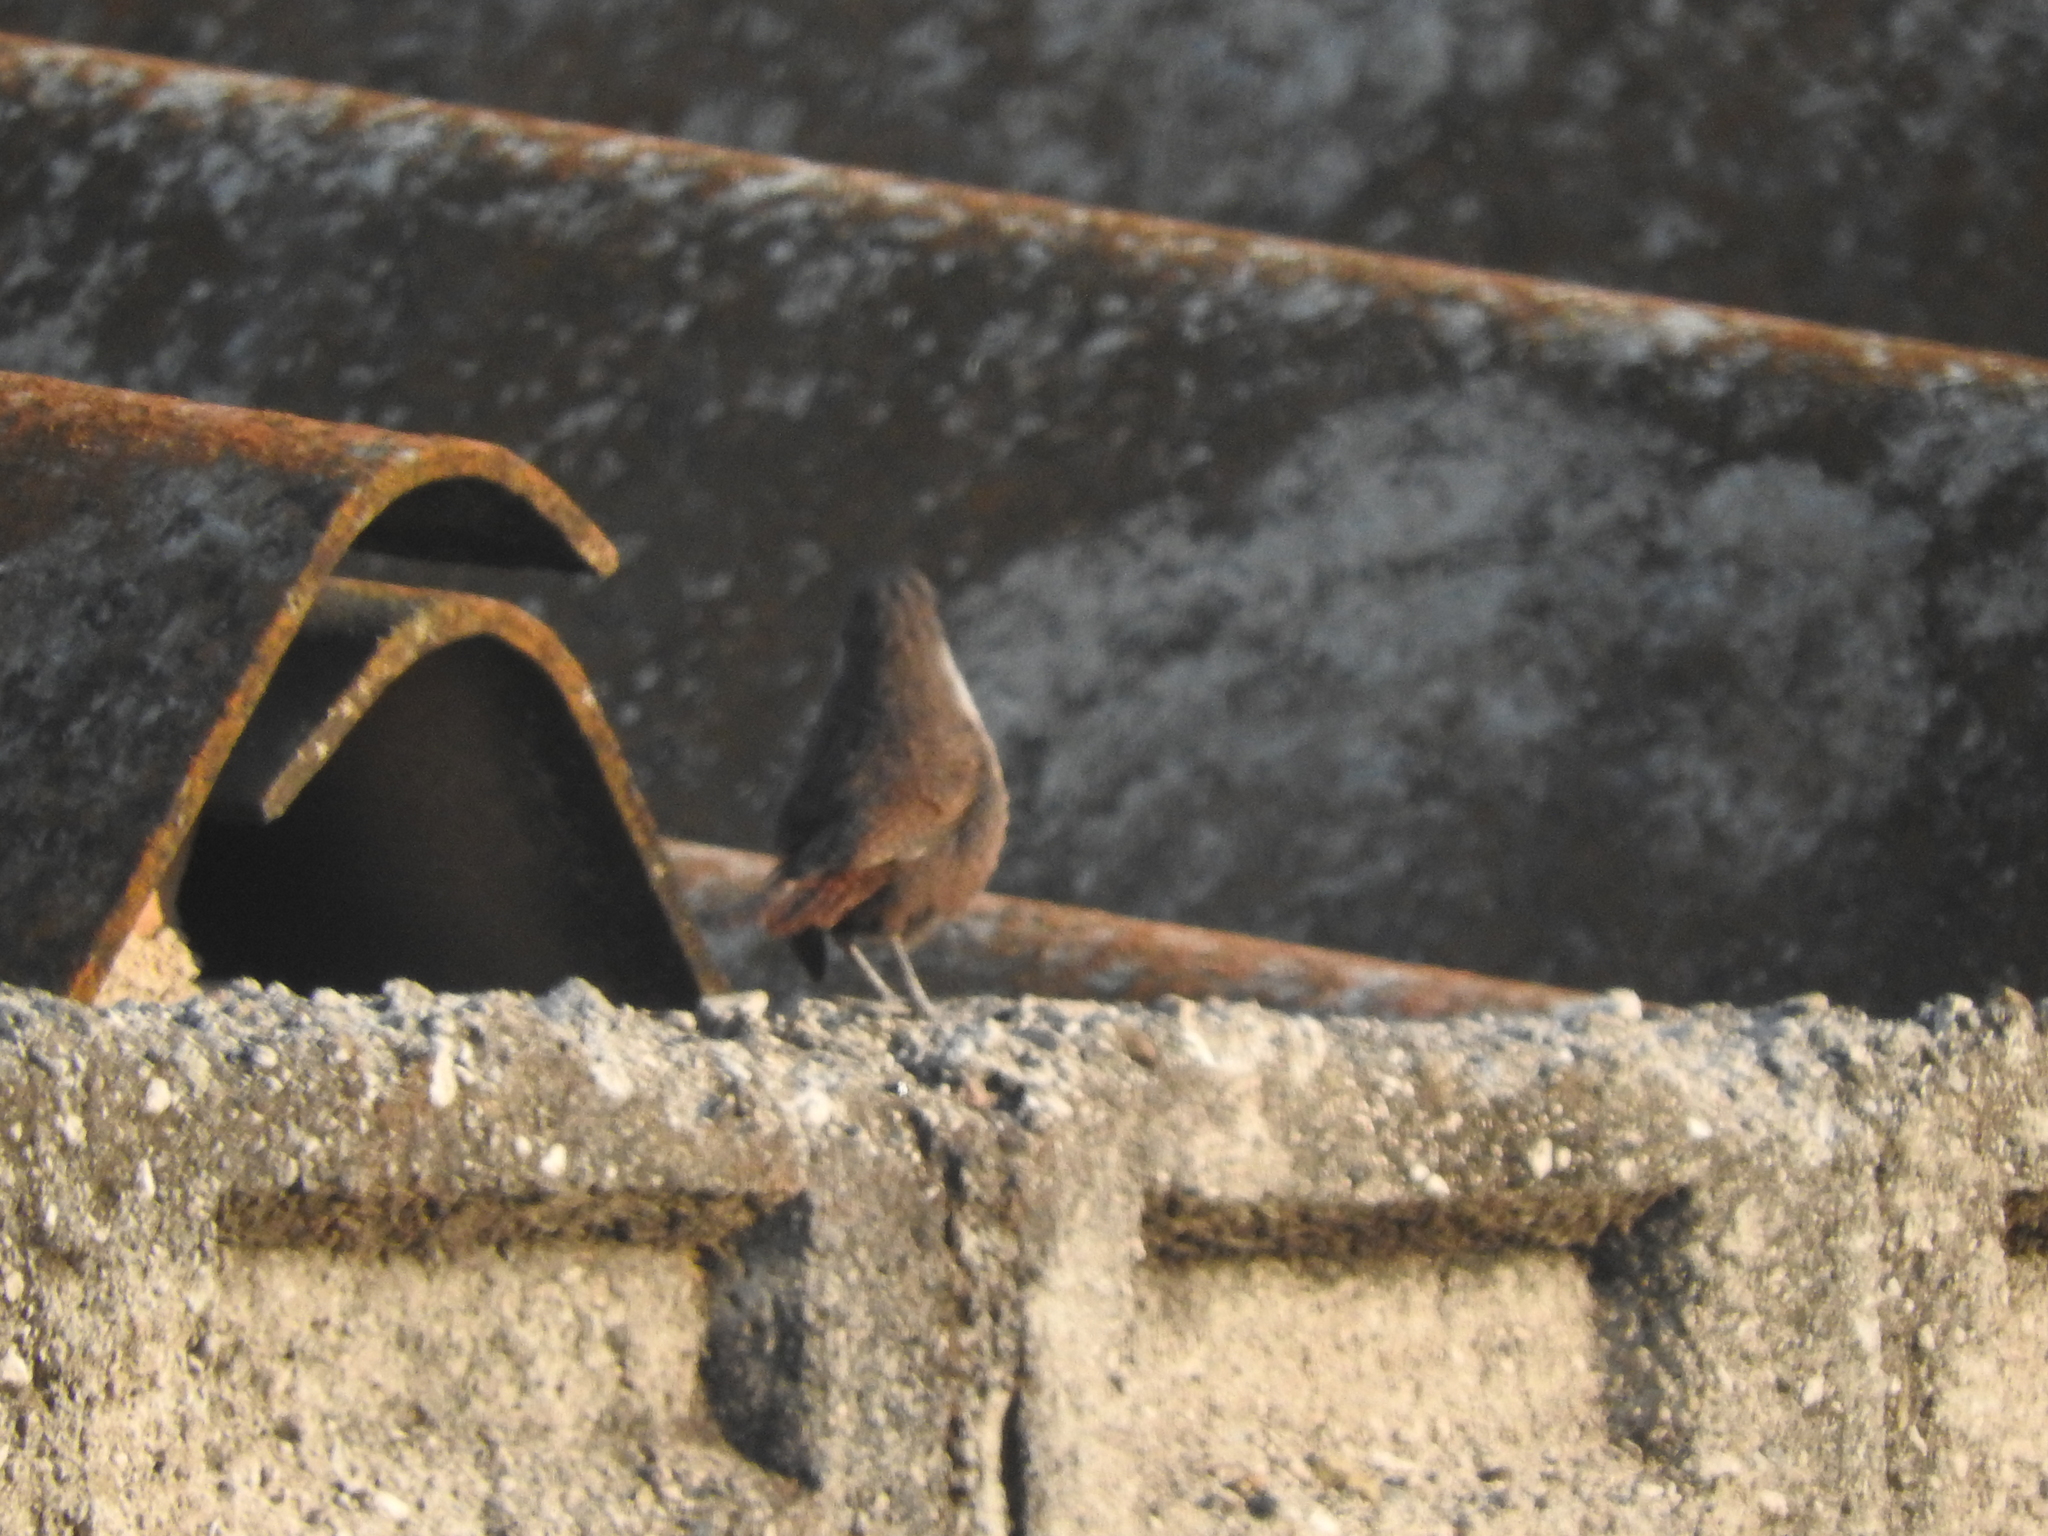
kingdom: Animalia
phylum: Chordata
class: Aves
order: Passeriformes
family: Troglodytidae
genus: Catherpes
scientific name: Catherpes mexicanus
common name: Canyon wren
